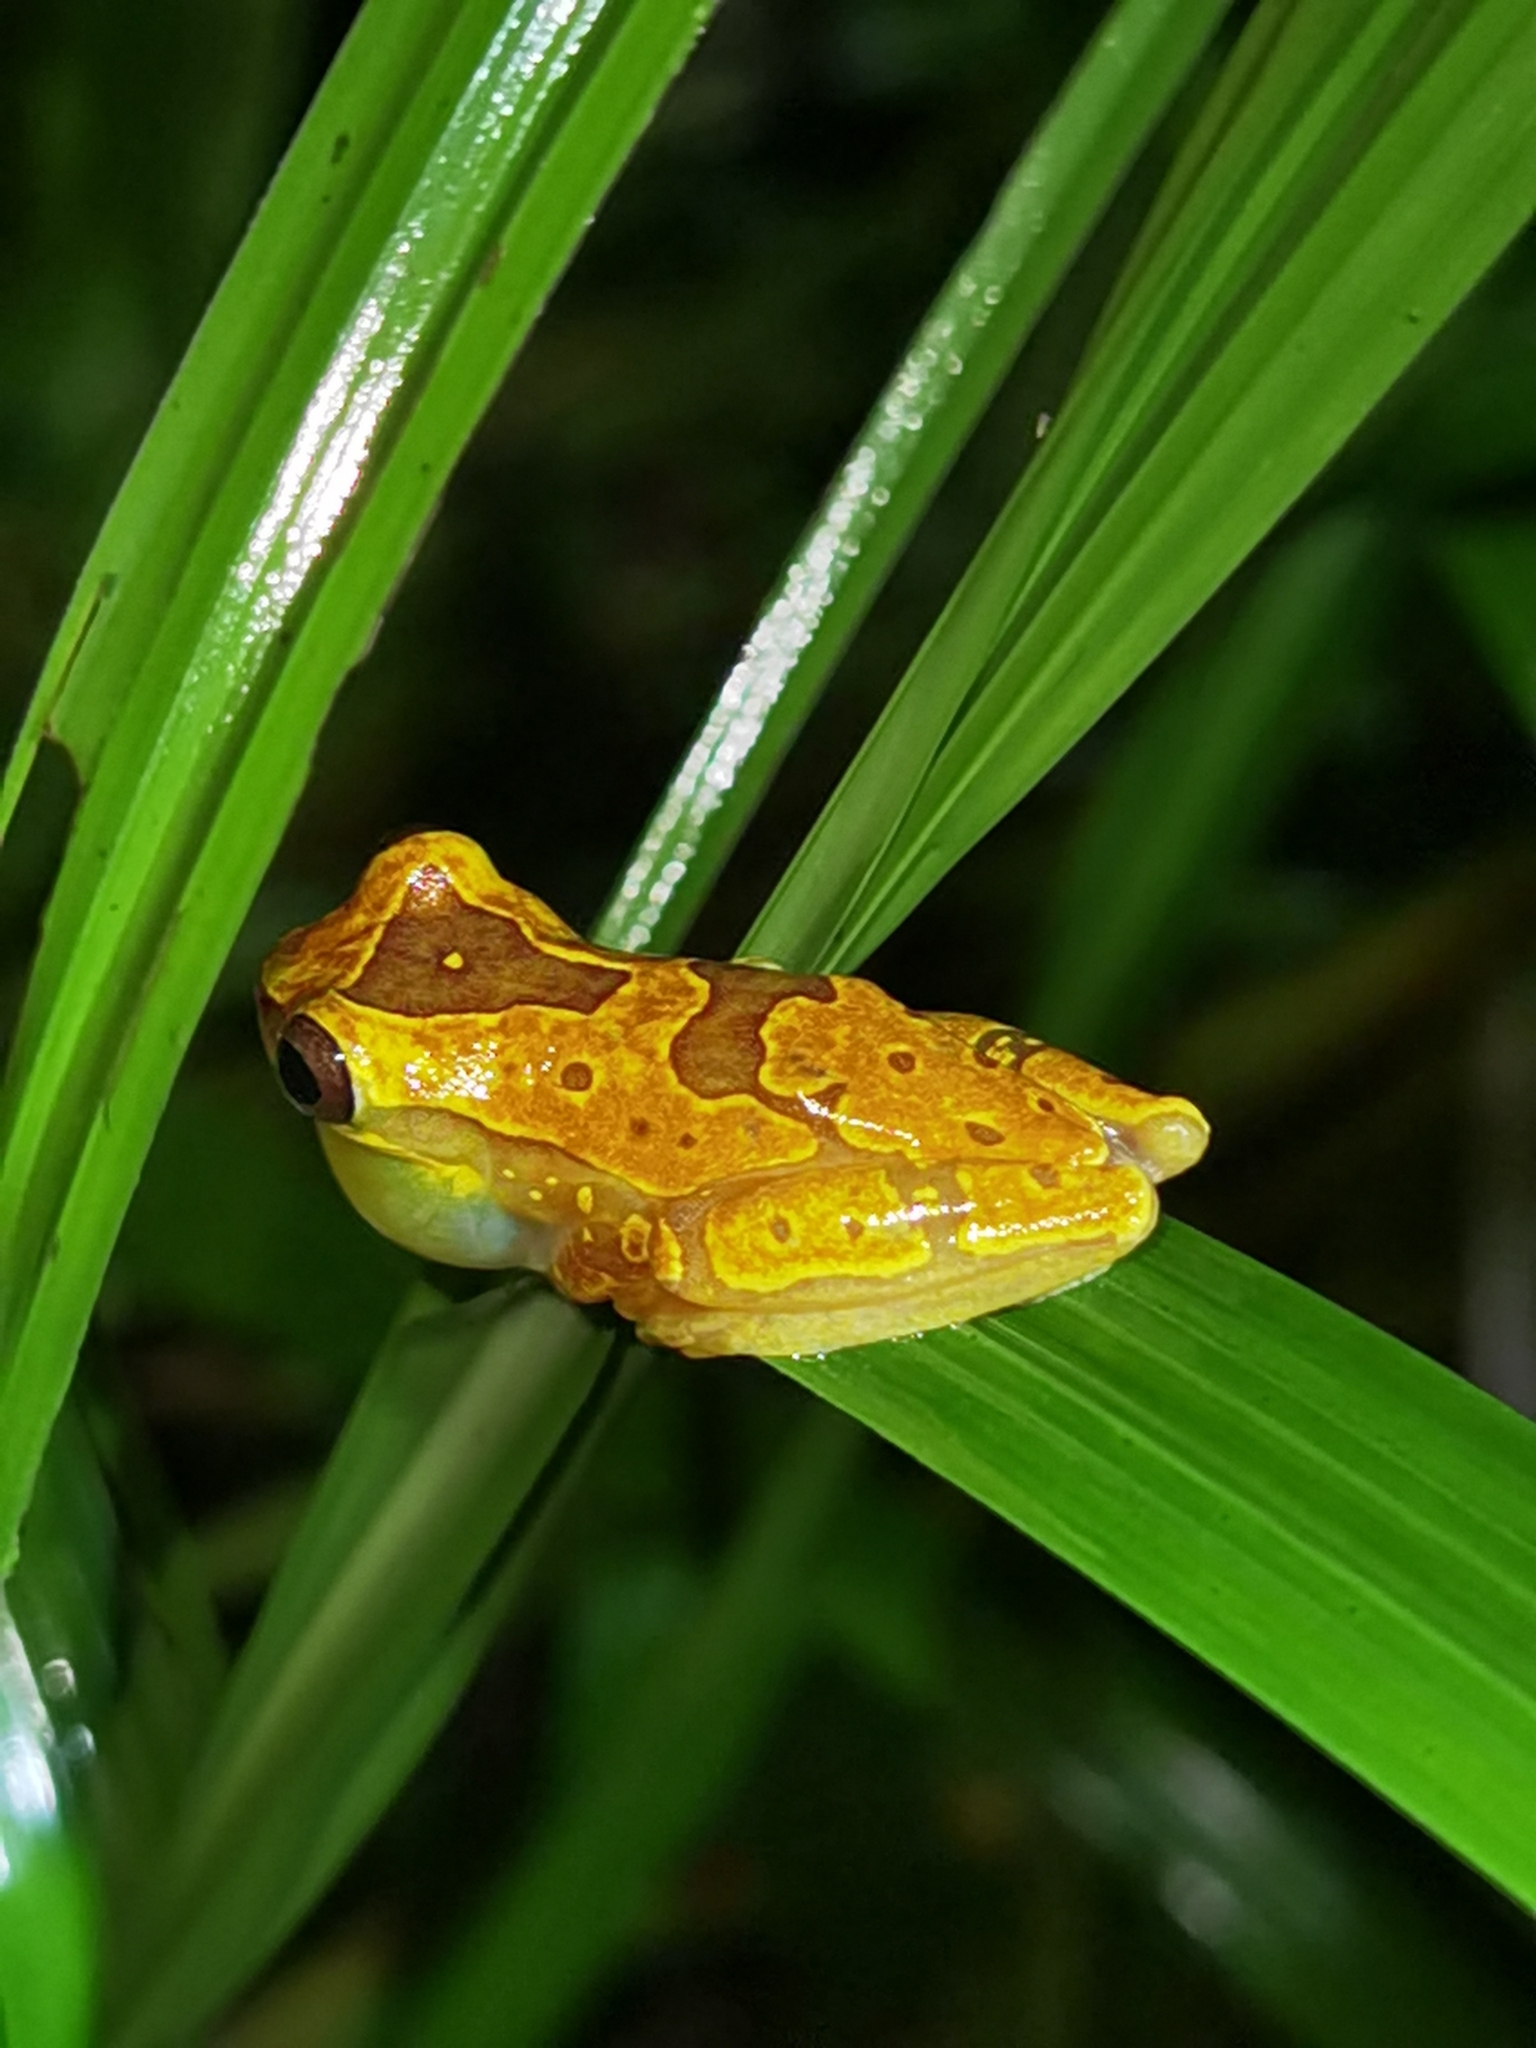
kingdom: Animalia
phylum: Chordata
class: Amphibia
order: Anura
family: Hylidae
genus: Dendropsophus
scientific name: Dendropsophus ebraccatus
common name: Hourglass treefrog
